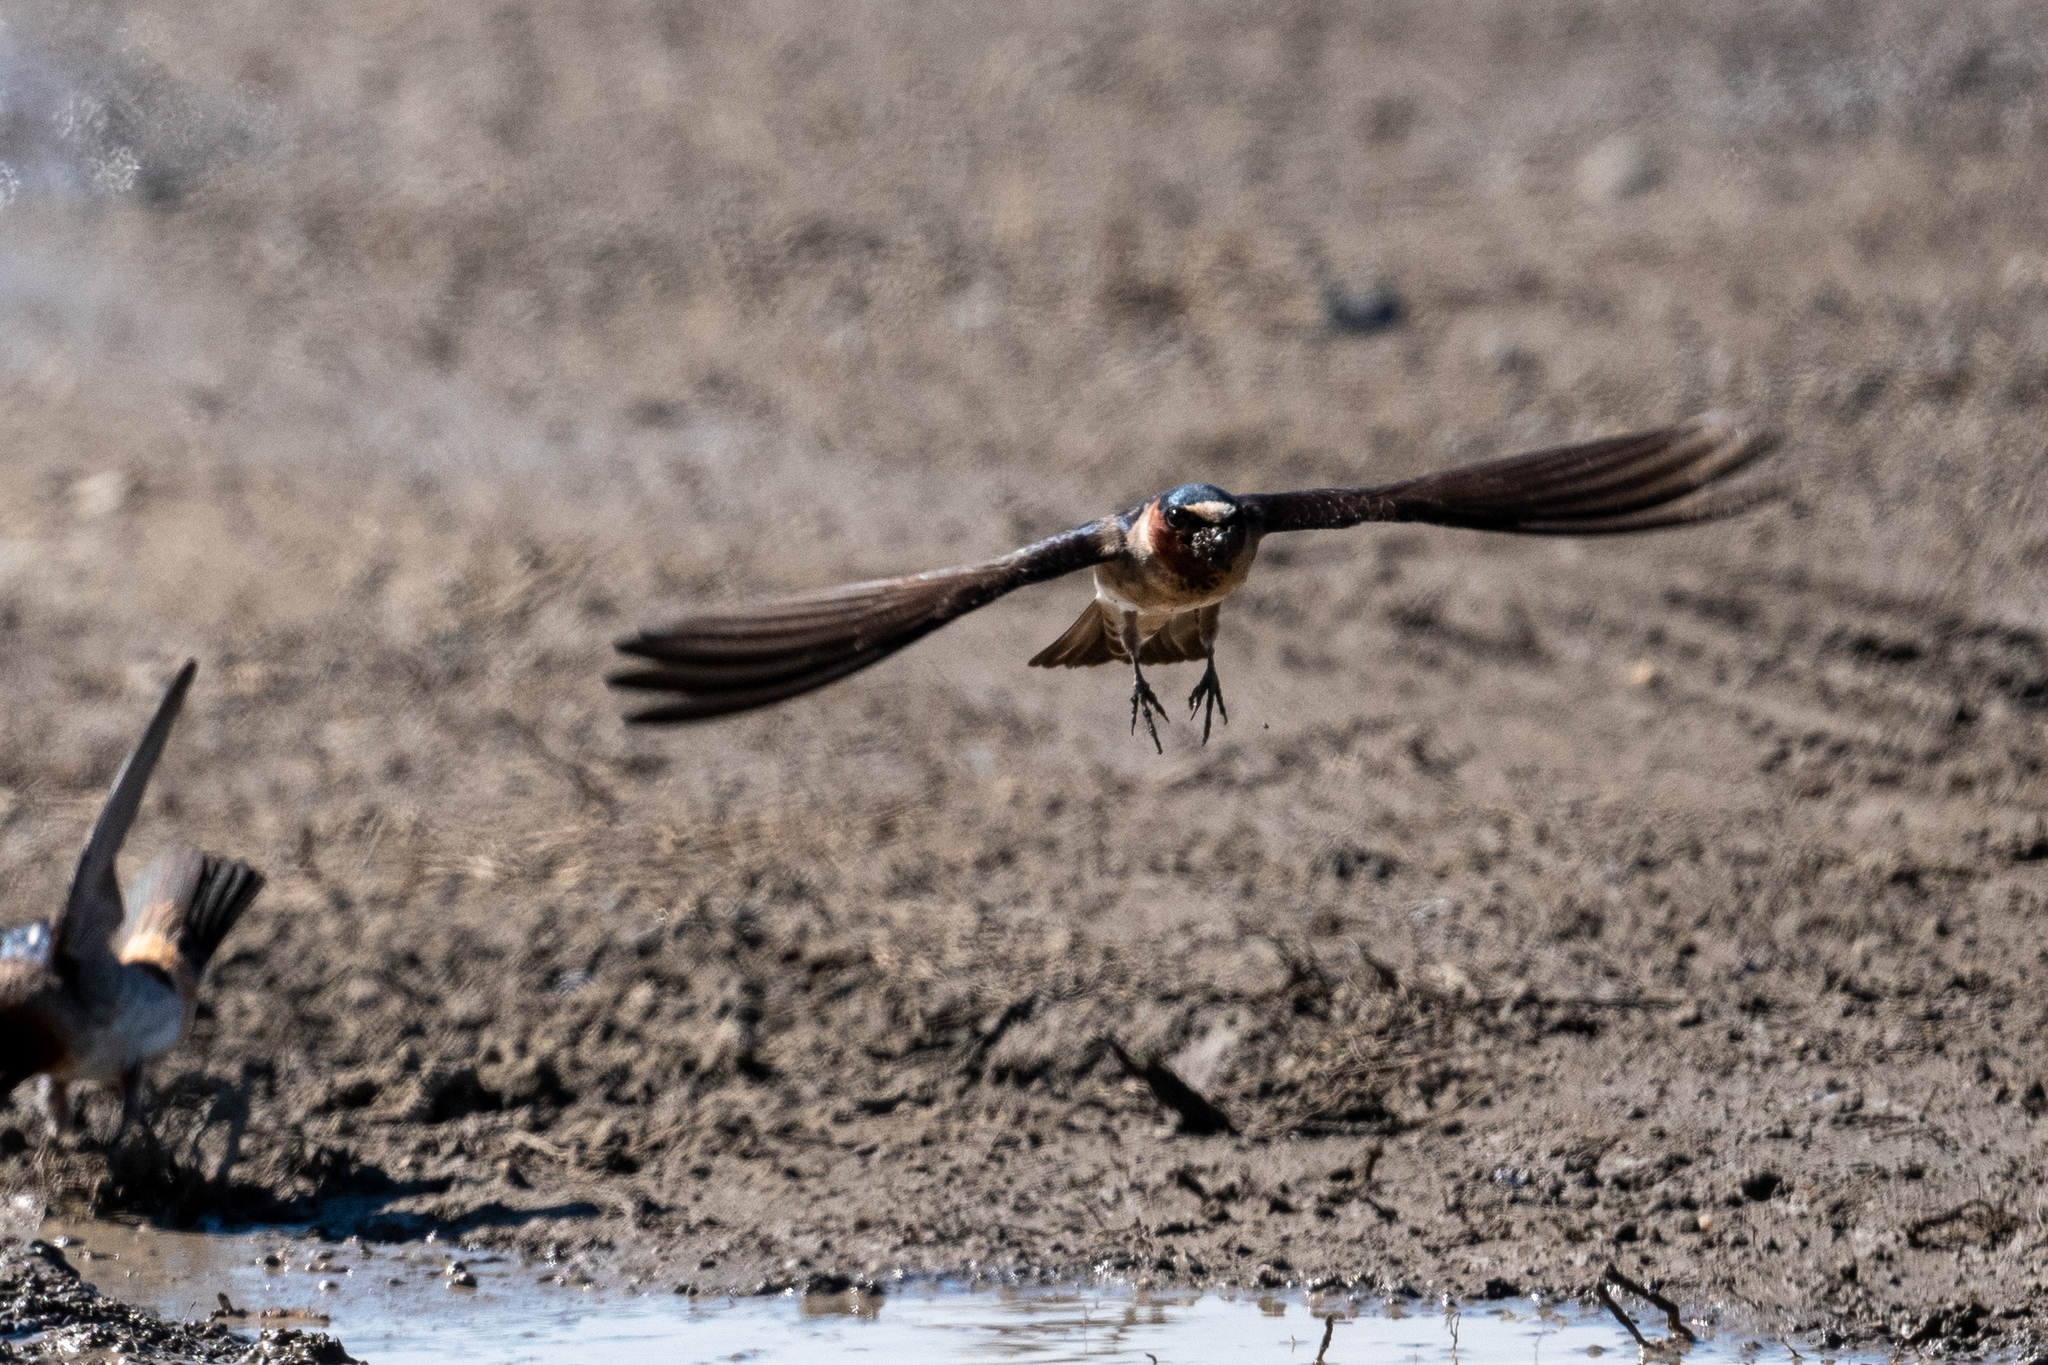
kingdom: Animalia
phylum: Chordata
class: Aves
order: Passeriformes
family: Hirundinidae
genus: Petrochelidon
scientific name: Petrochelidon pyrrhonota
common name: American cliff swallow
